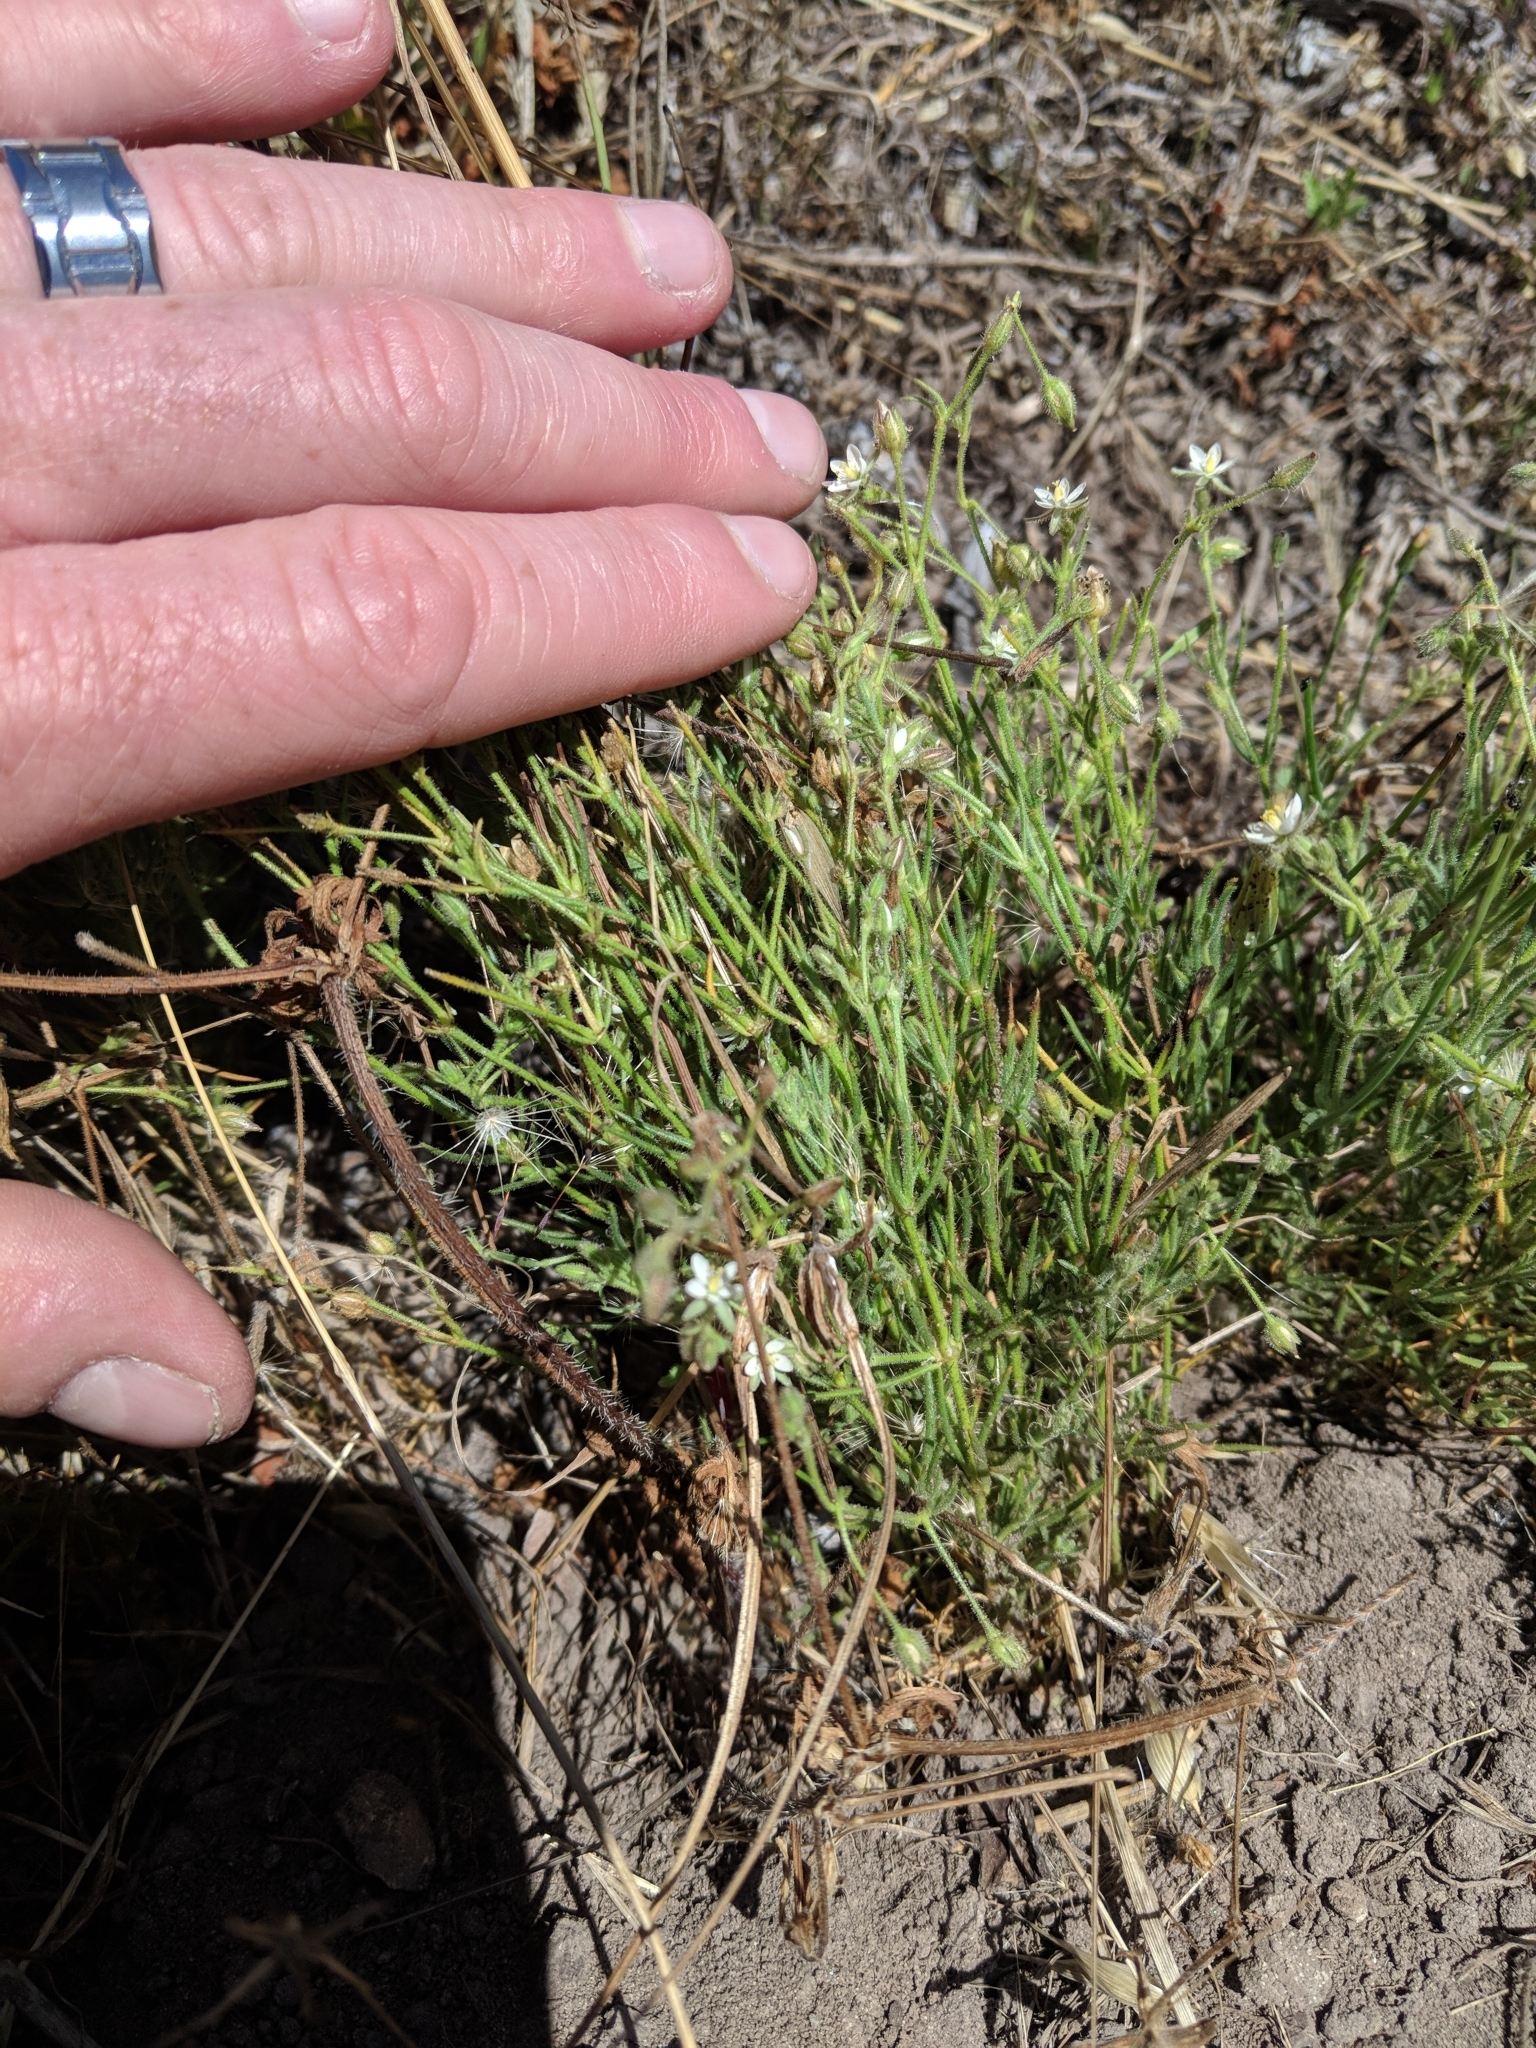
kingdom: Plantae
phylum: Tracheophyta
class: Magnoliopsida
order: Caryophyllales
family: Caryophyllaceae
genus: Spergula
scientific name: Spergula arvensis
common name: Corn spurrey
